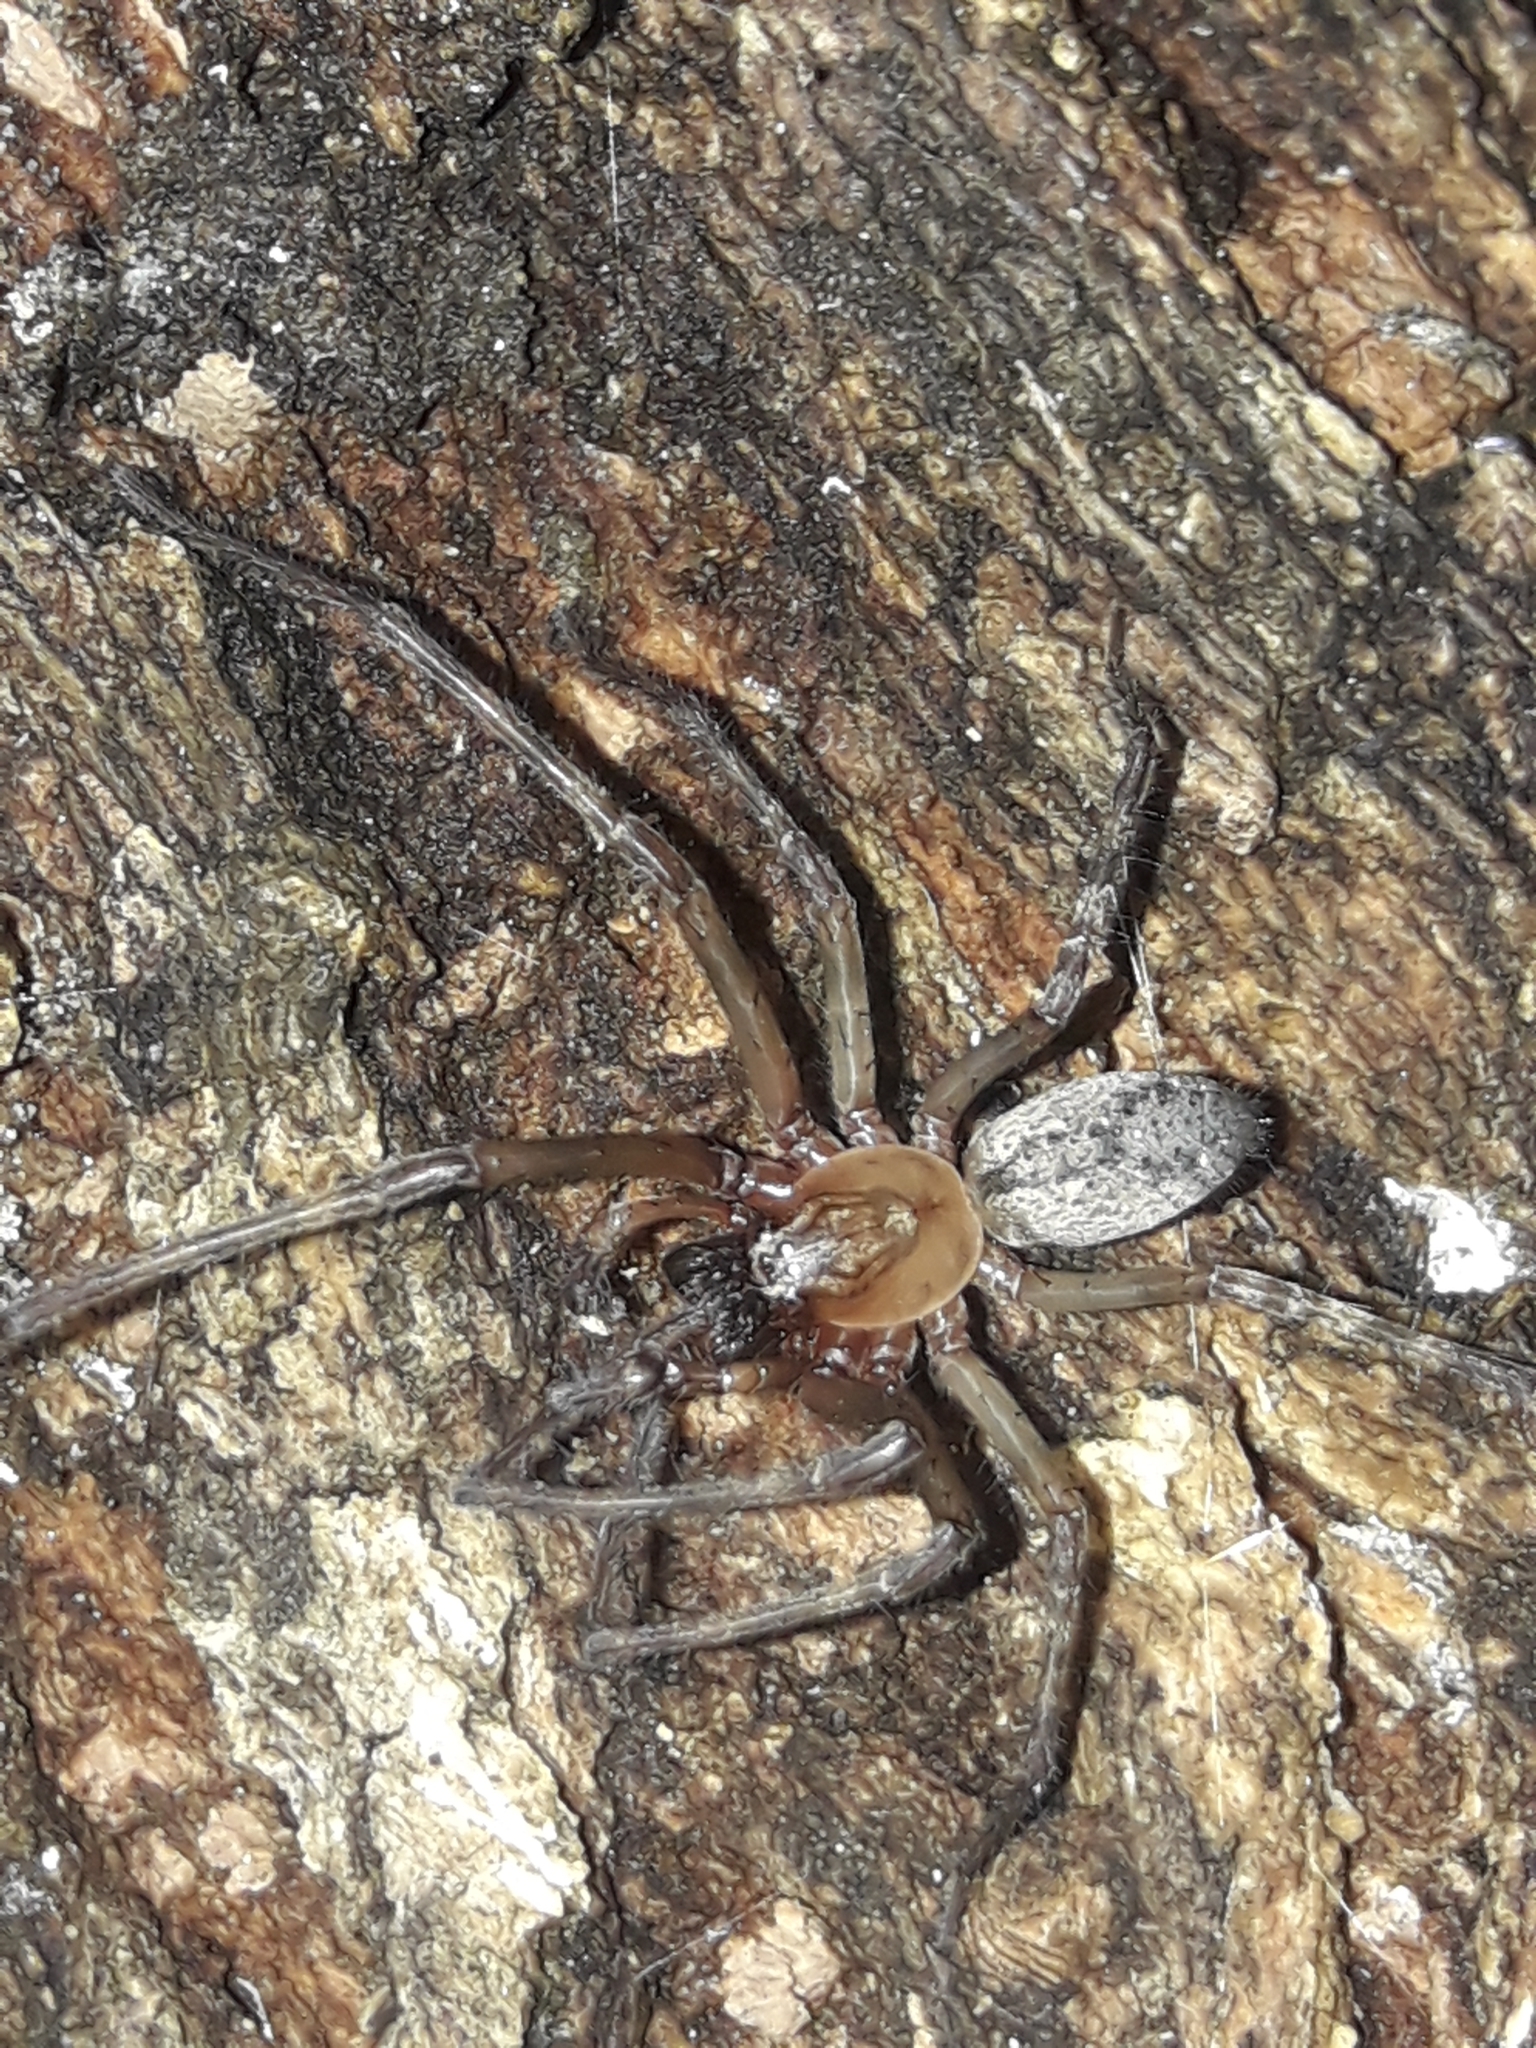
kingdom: Animalia
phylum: Arthropoda
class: Arachnida
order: Araneae
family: Desidae
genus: Nuisiana
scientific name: Nuisiana arboris
